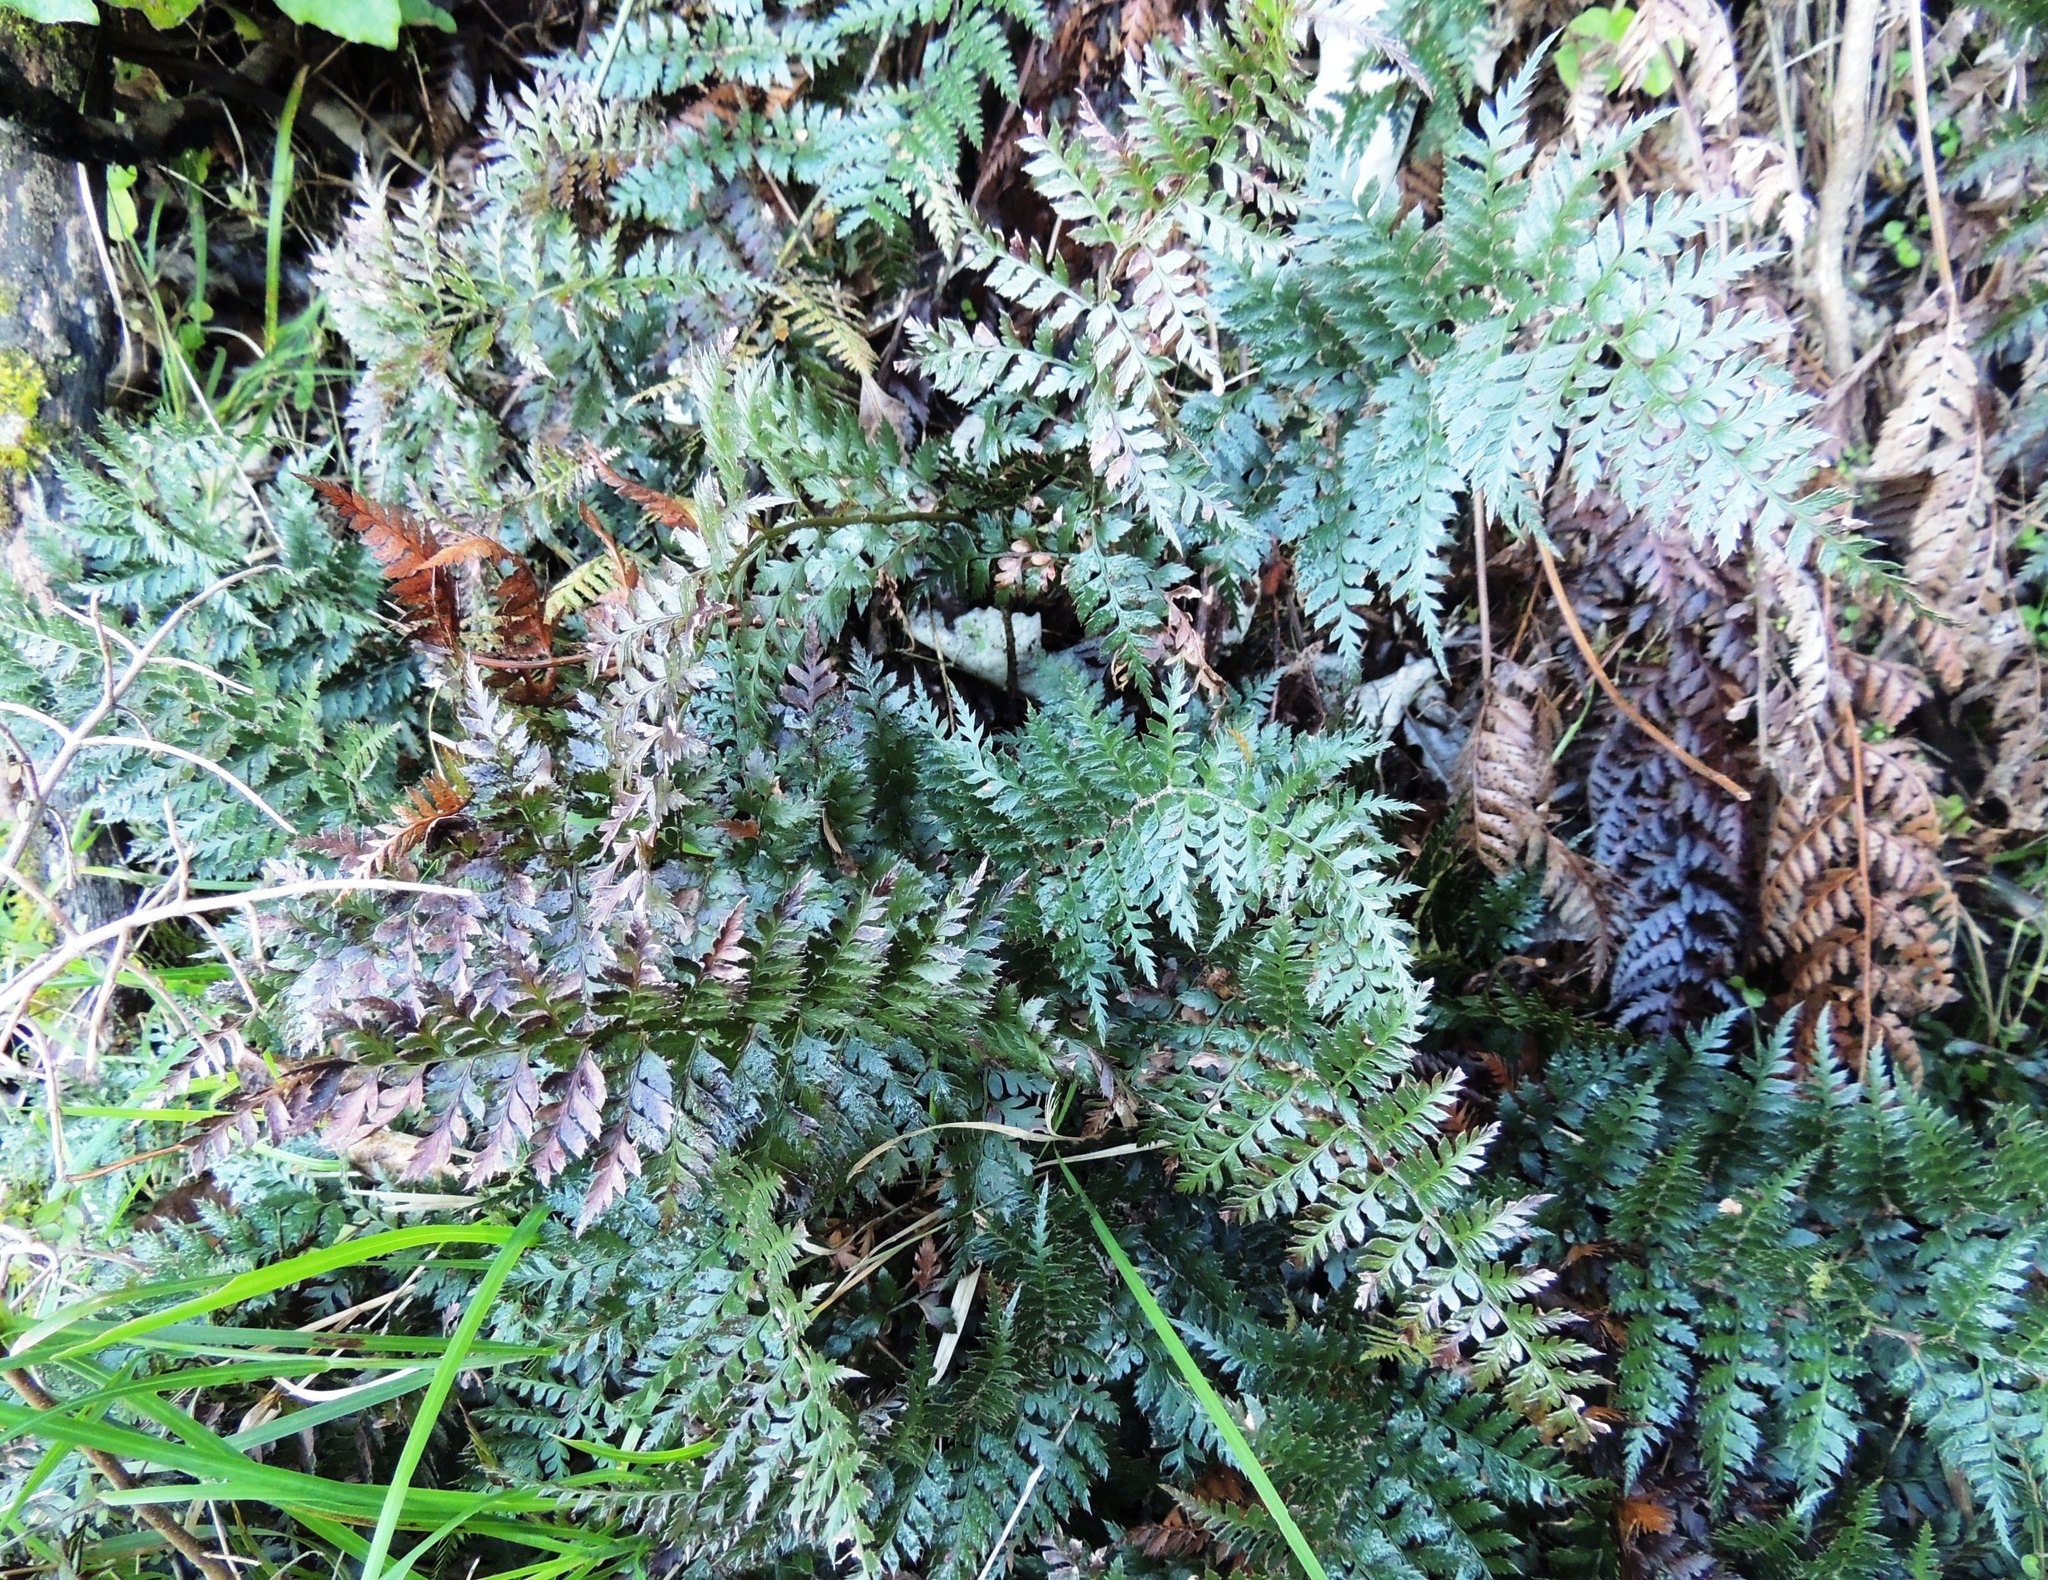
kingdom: Plantae
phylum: Tracheophyta
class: Polypodiopsida
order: Polypodiales
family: Dryopteridaceae
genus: Polystichum
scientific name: Polystichum oculatum
